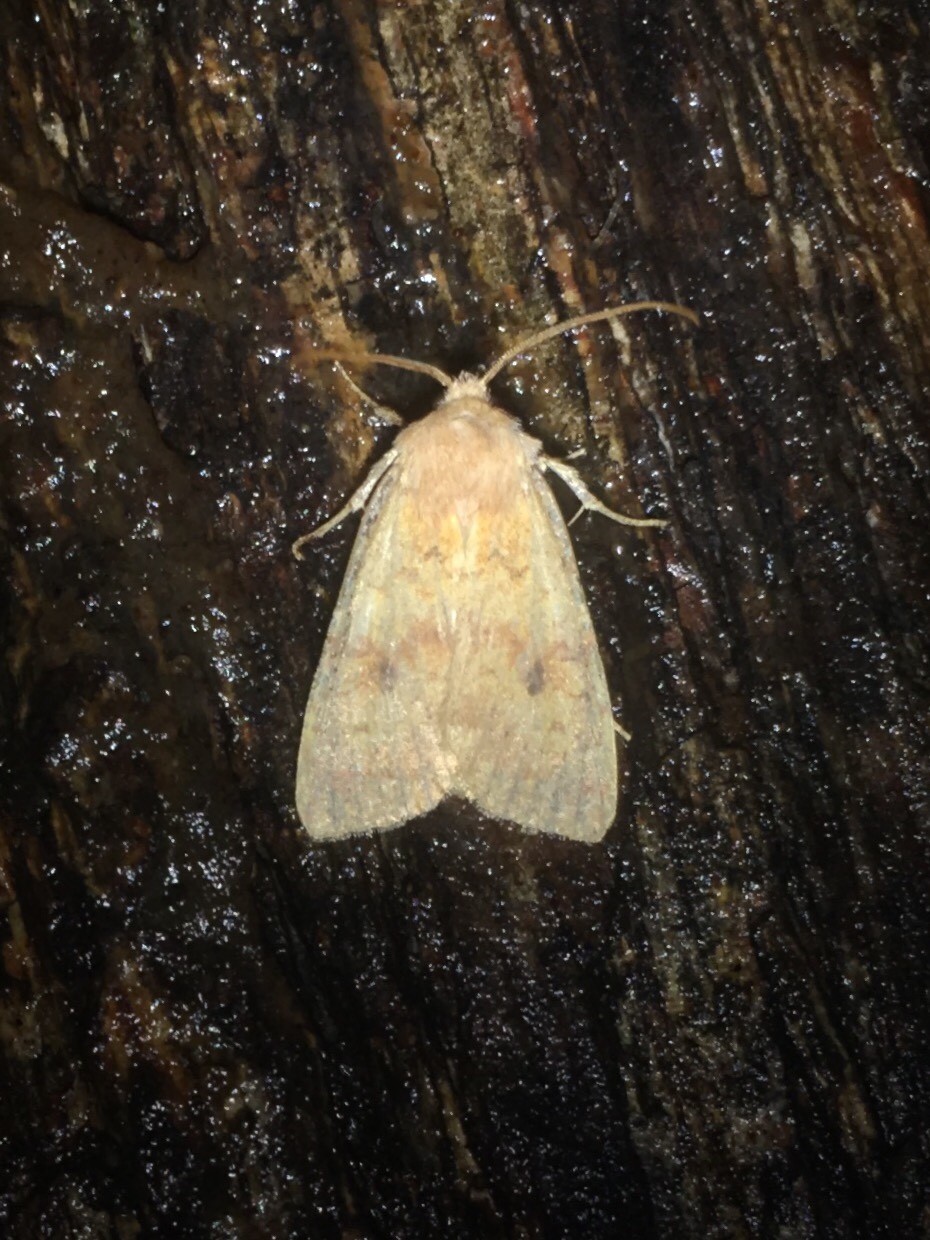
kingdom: Animalia
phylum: Arthropoda
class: Insecta
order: Lepidoptera
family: Noctuidae
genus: Agrochola
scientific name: Agrochola bicolorago
